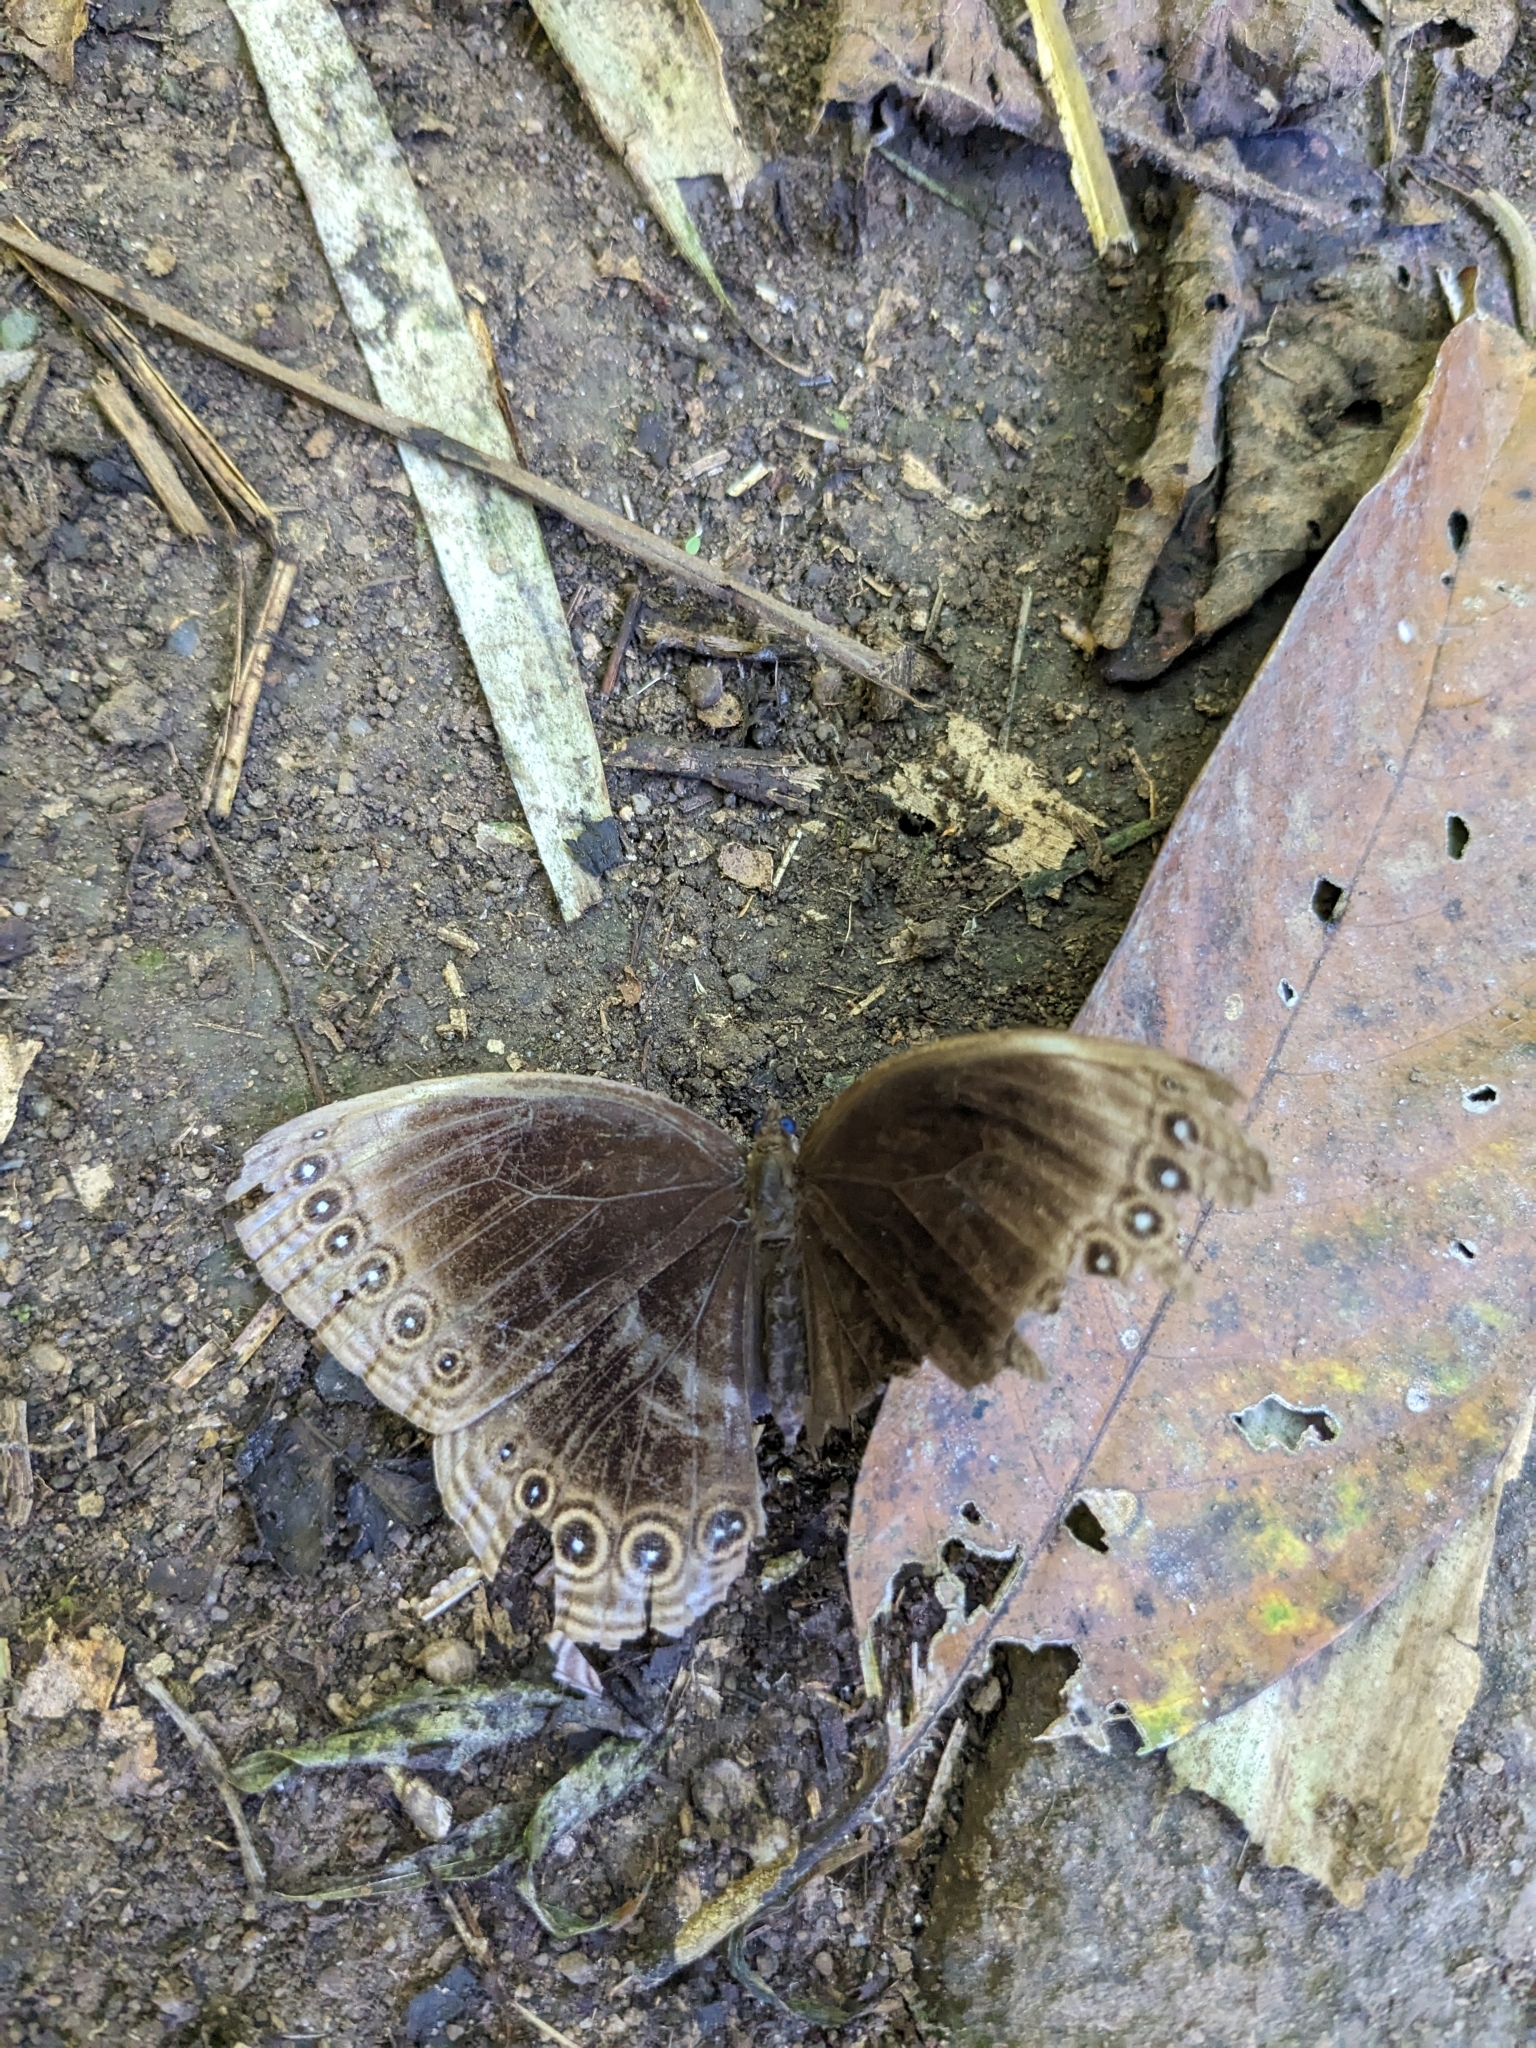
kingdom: Animalia
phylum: Arthropoda
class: Insecta
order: Lepidoptera
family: Nymphalidae
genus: Ethope
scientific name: Ethope himachala
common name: Dusky diadem
